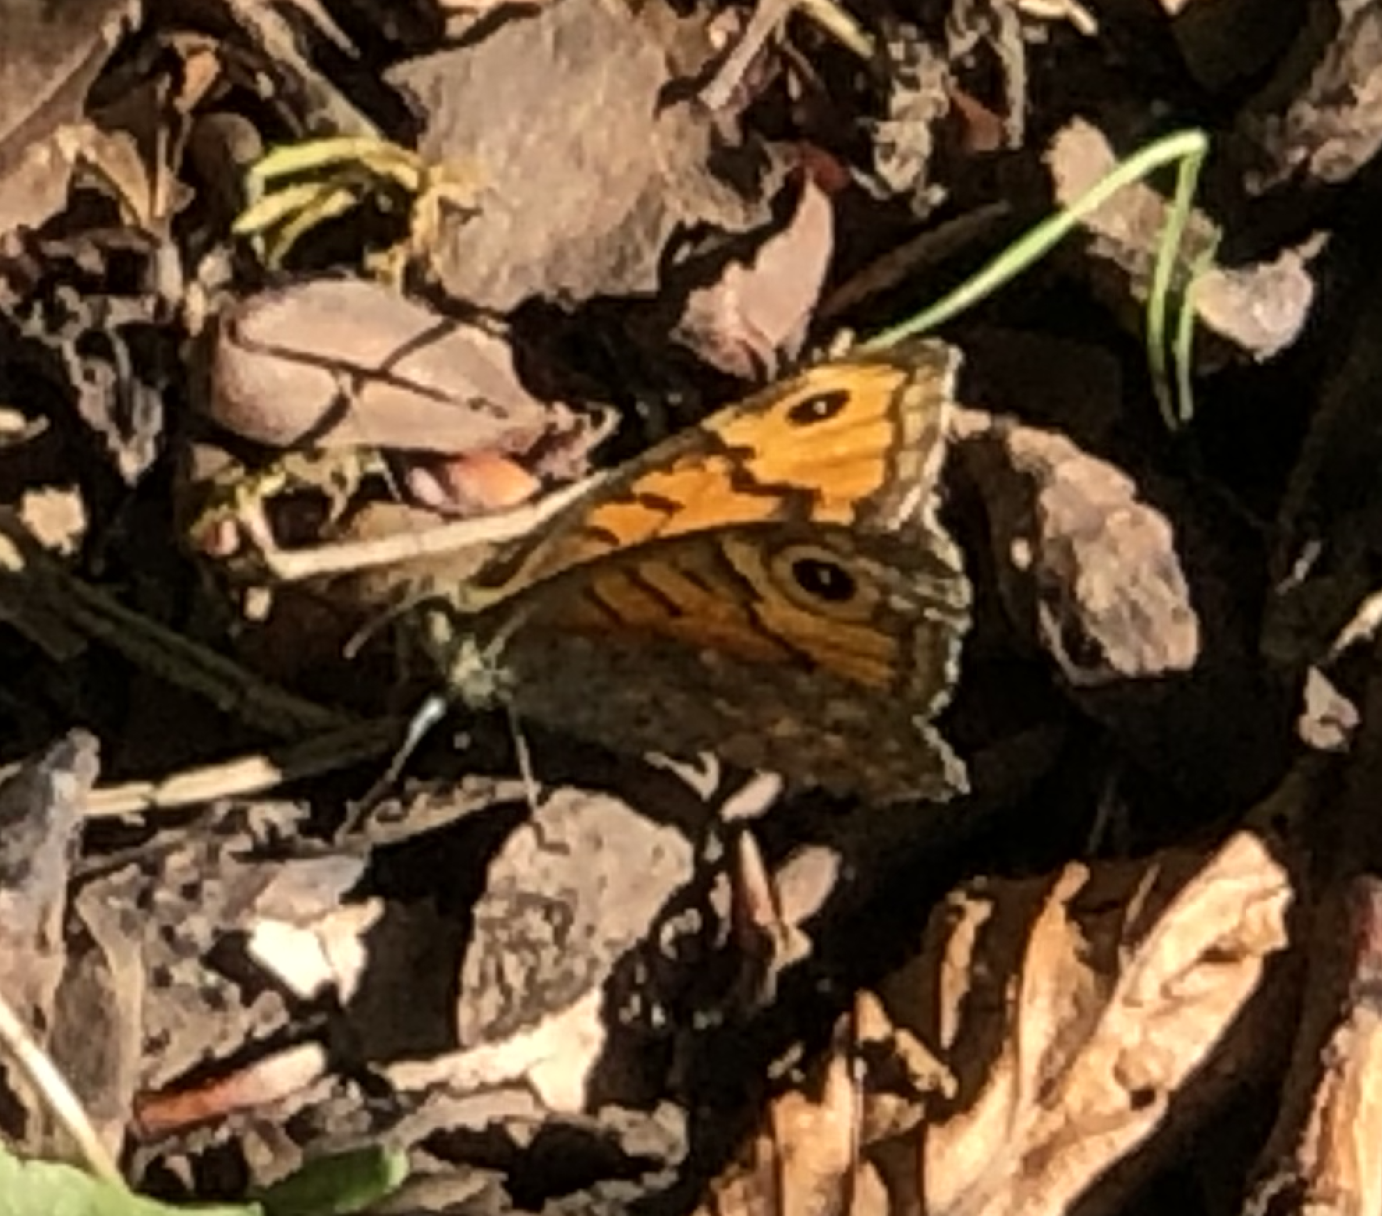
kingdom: Animalia
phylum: Arthropoda
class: Insecta
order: Lepidoptera
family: Nymphalidae
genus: Pararge
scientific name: Pararge Lasiommata megera
